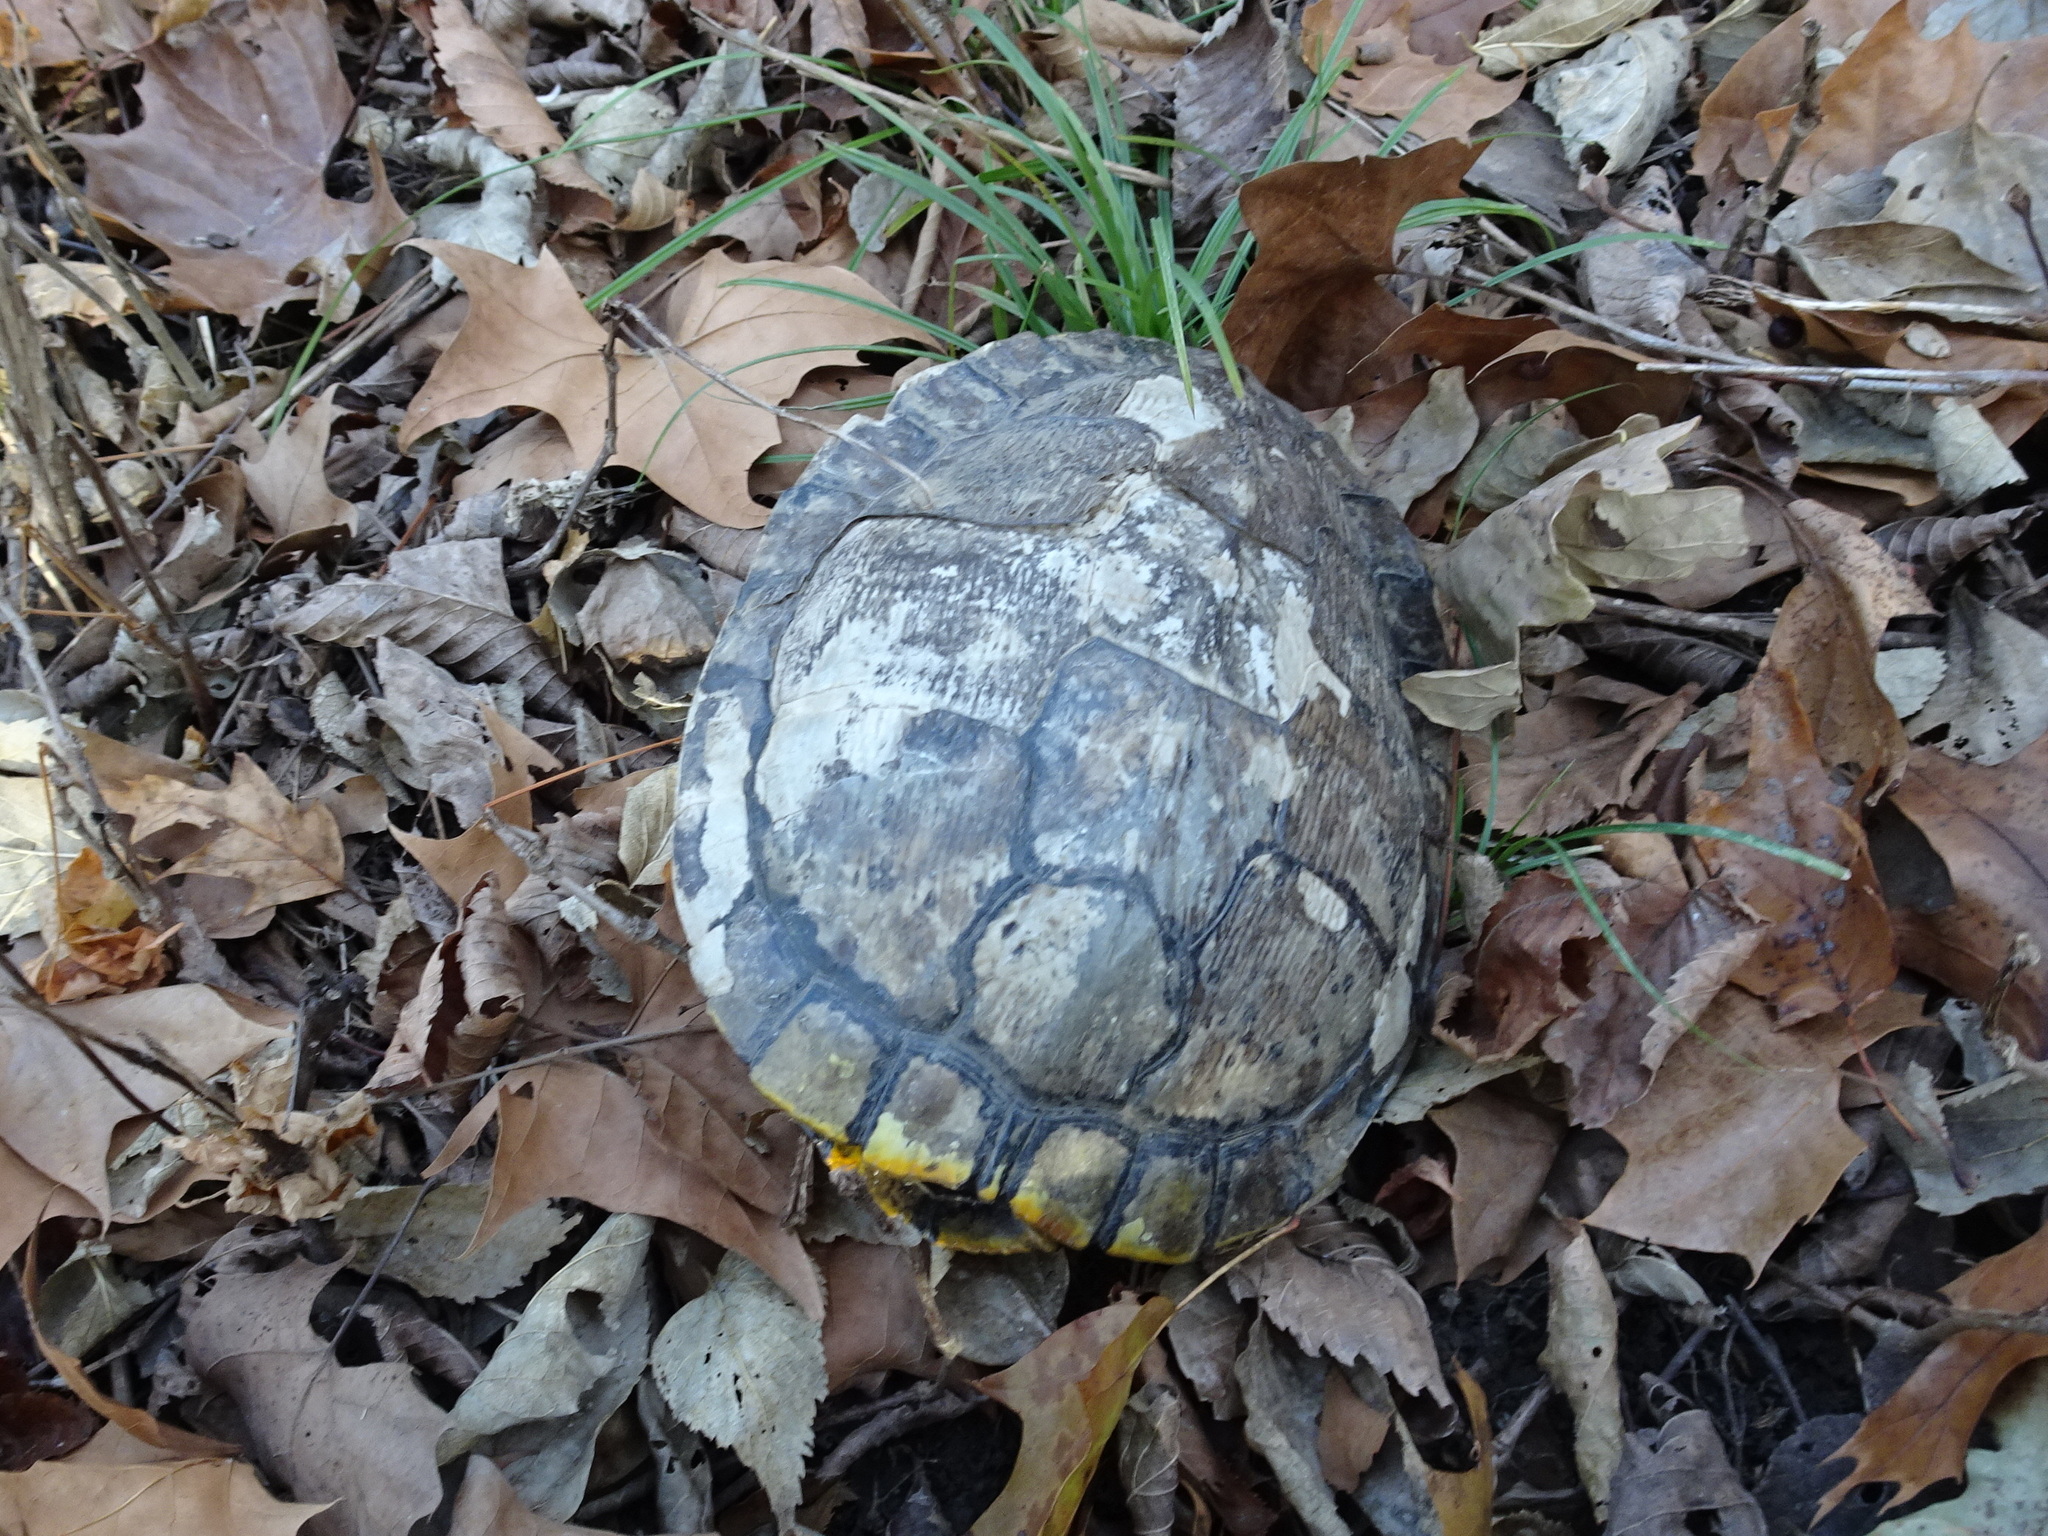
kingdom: Animalia
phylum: Chordata
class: Testudines
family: Emydidae
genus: Trachemys
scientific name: Trachemys scripta
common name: Slider
